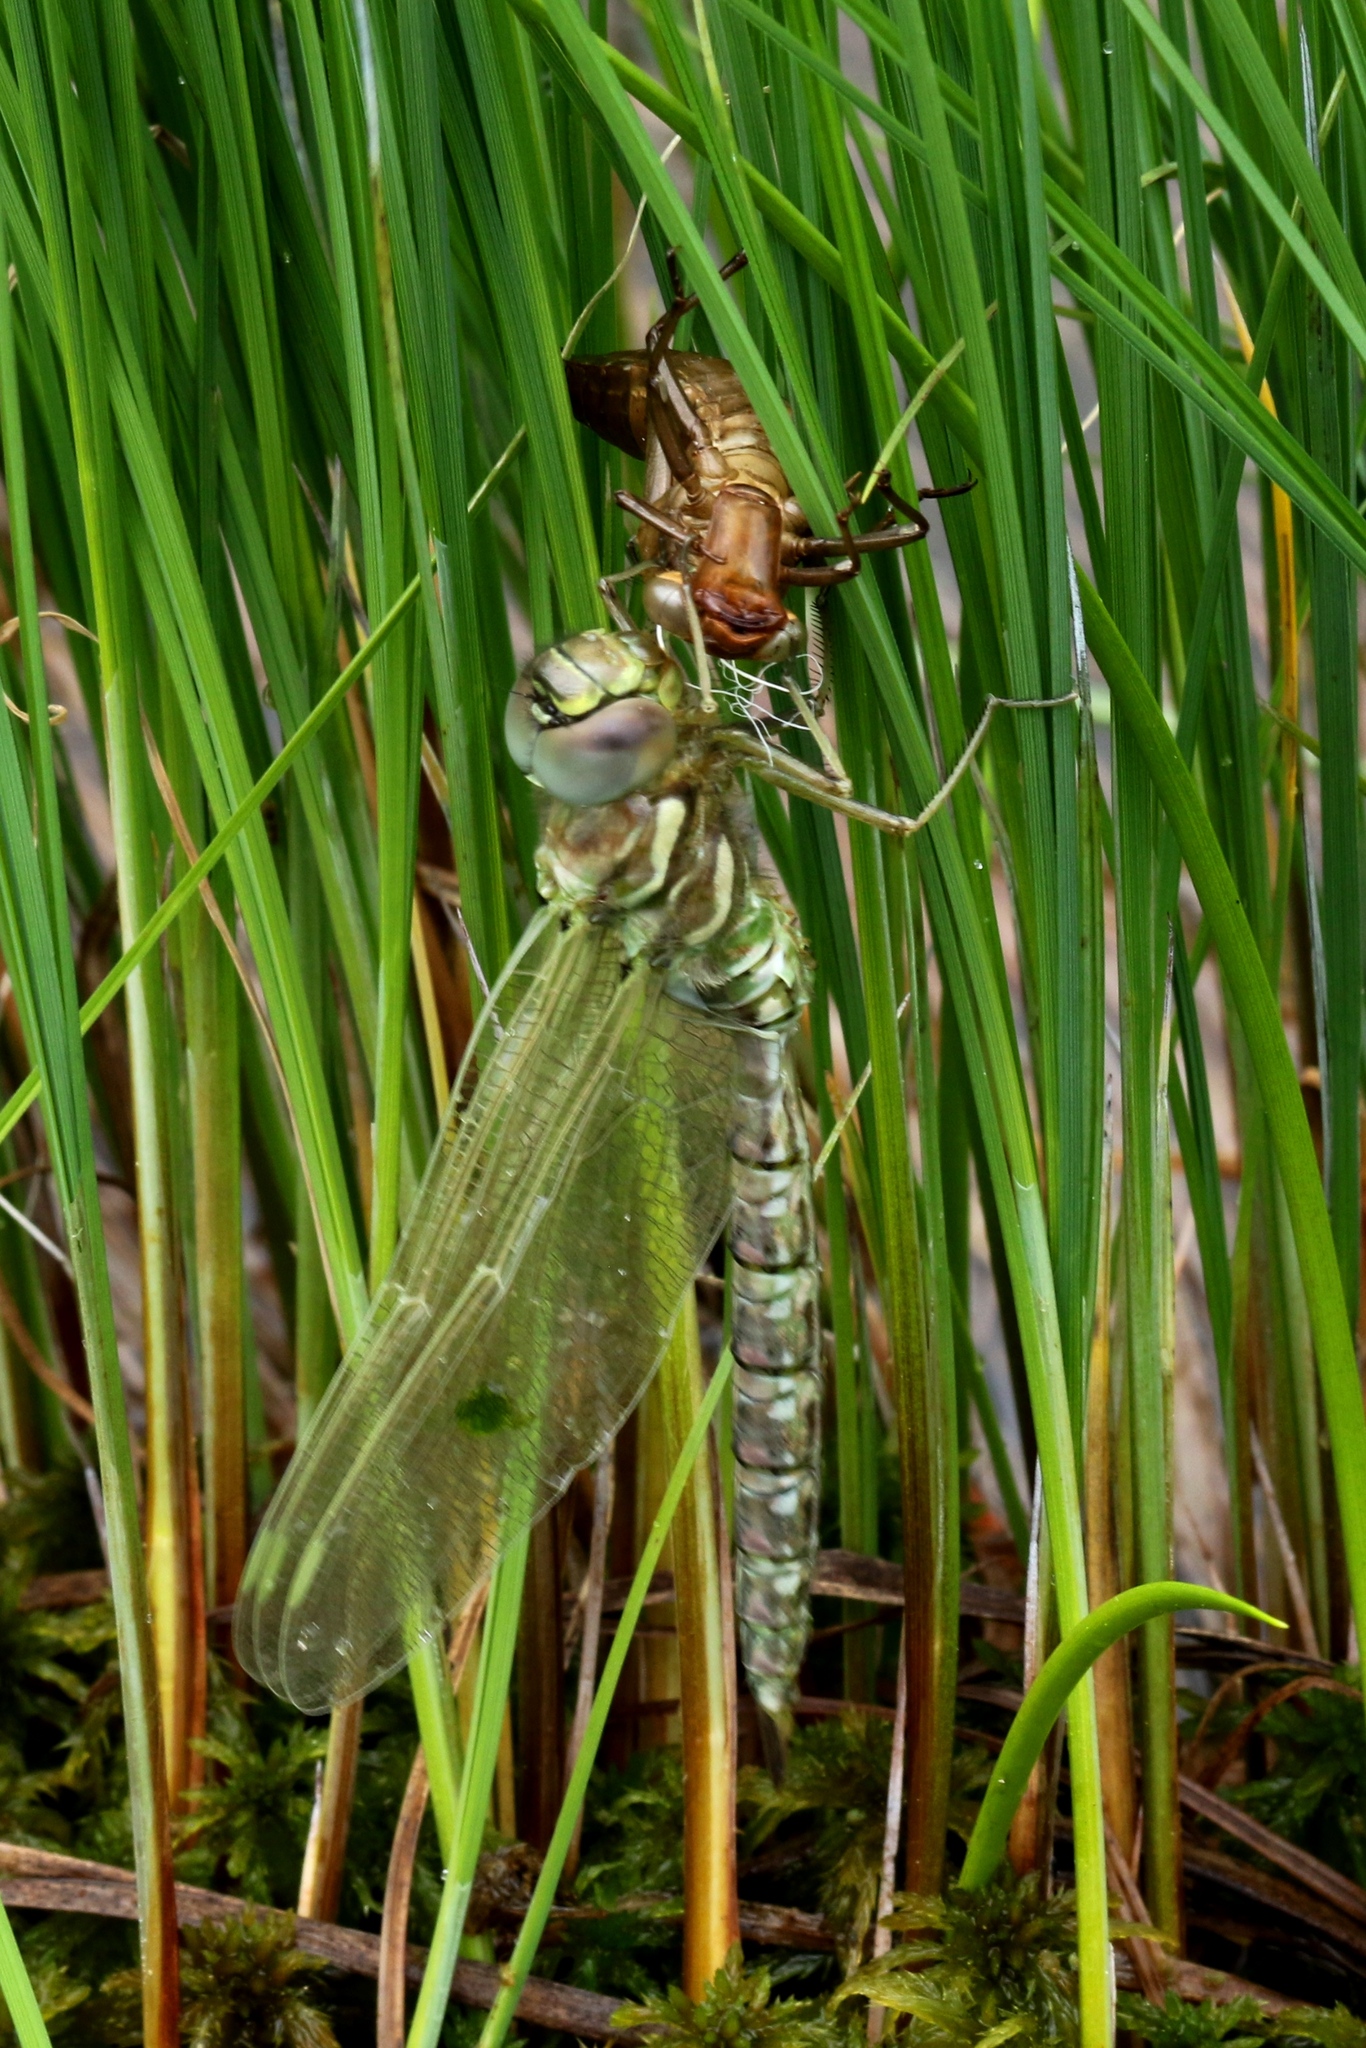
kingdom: Animalia
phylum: Arthropoda
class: Insecta
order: Odonata
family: Aeshnidae
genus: Aeshna
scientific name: Aeshna subarctica
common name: Subarctic darner
